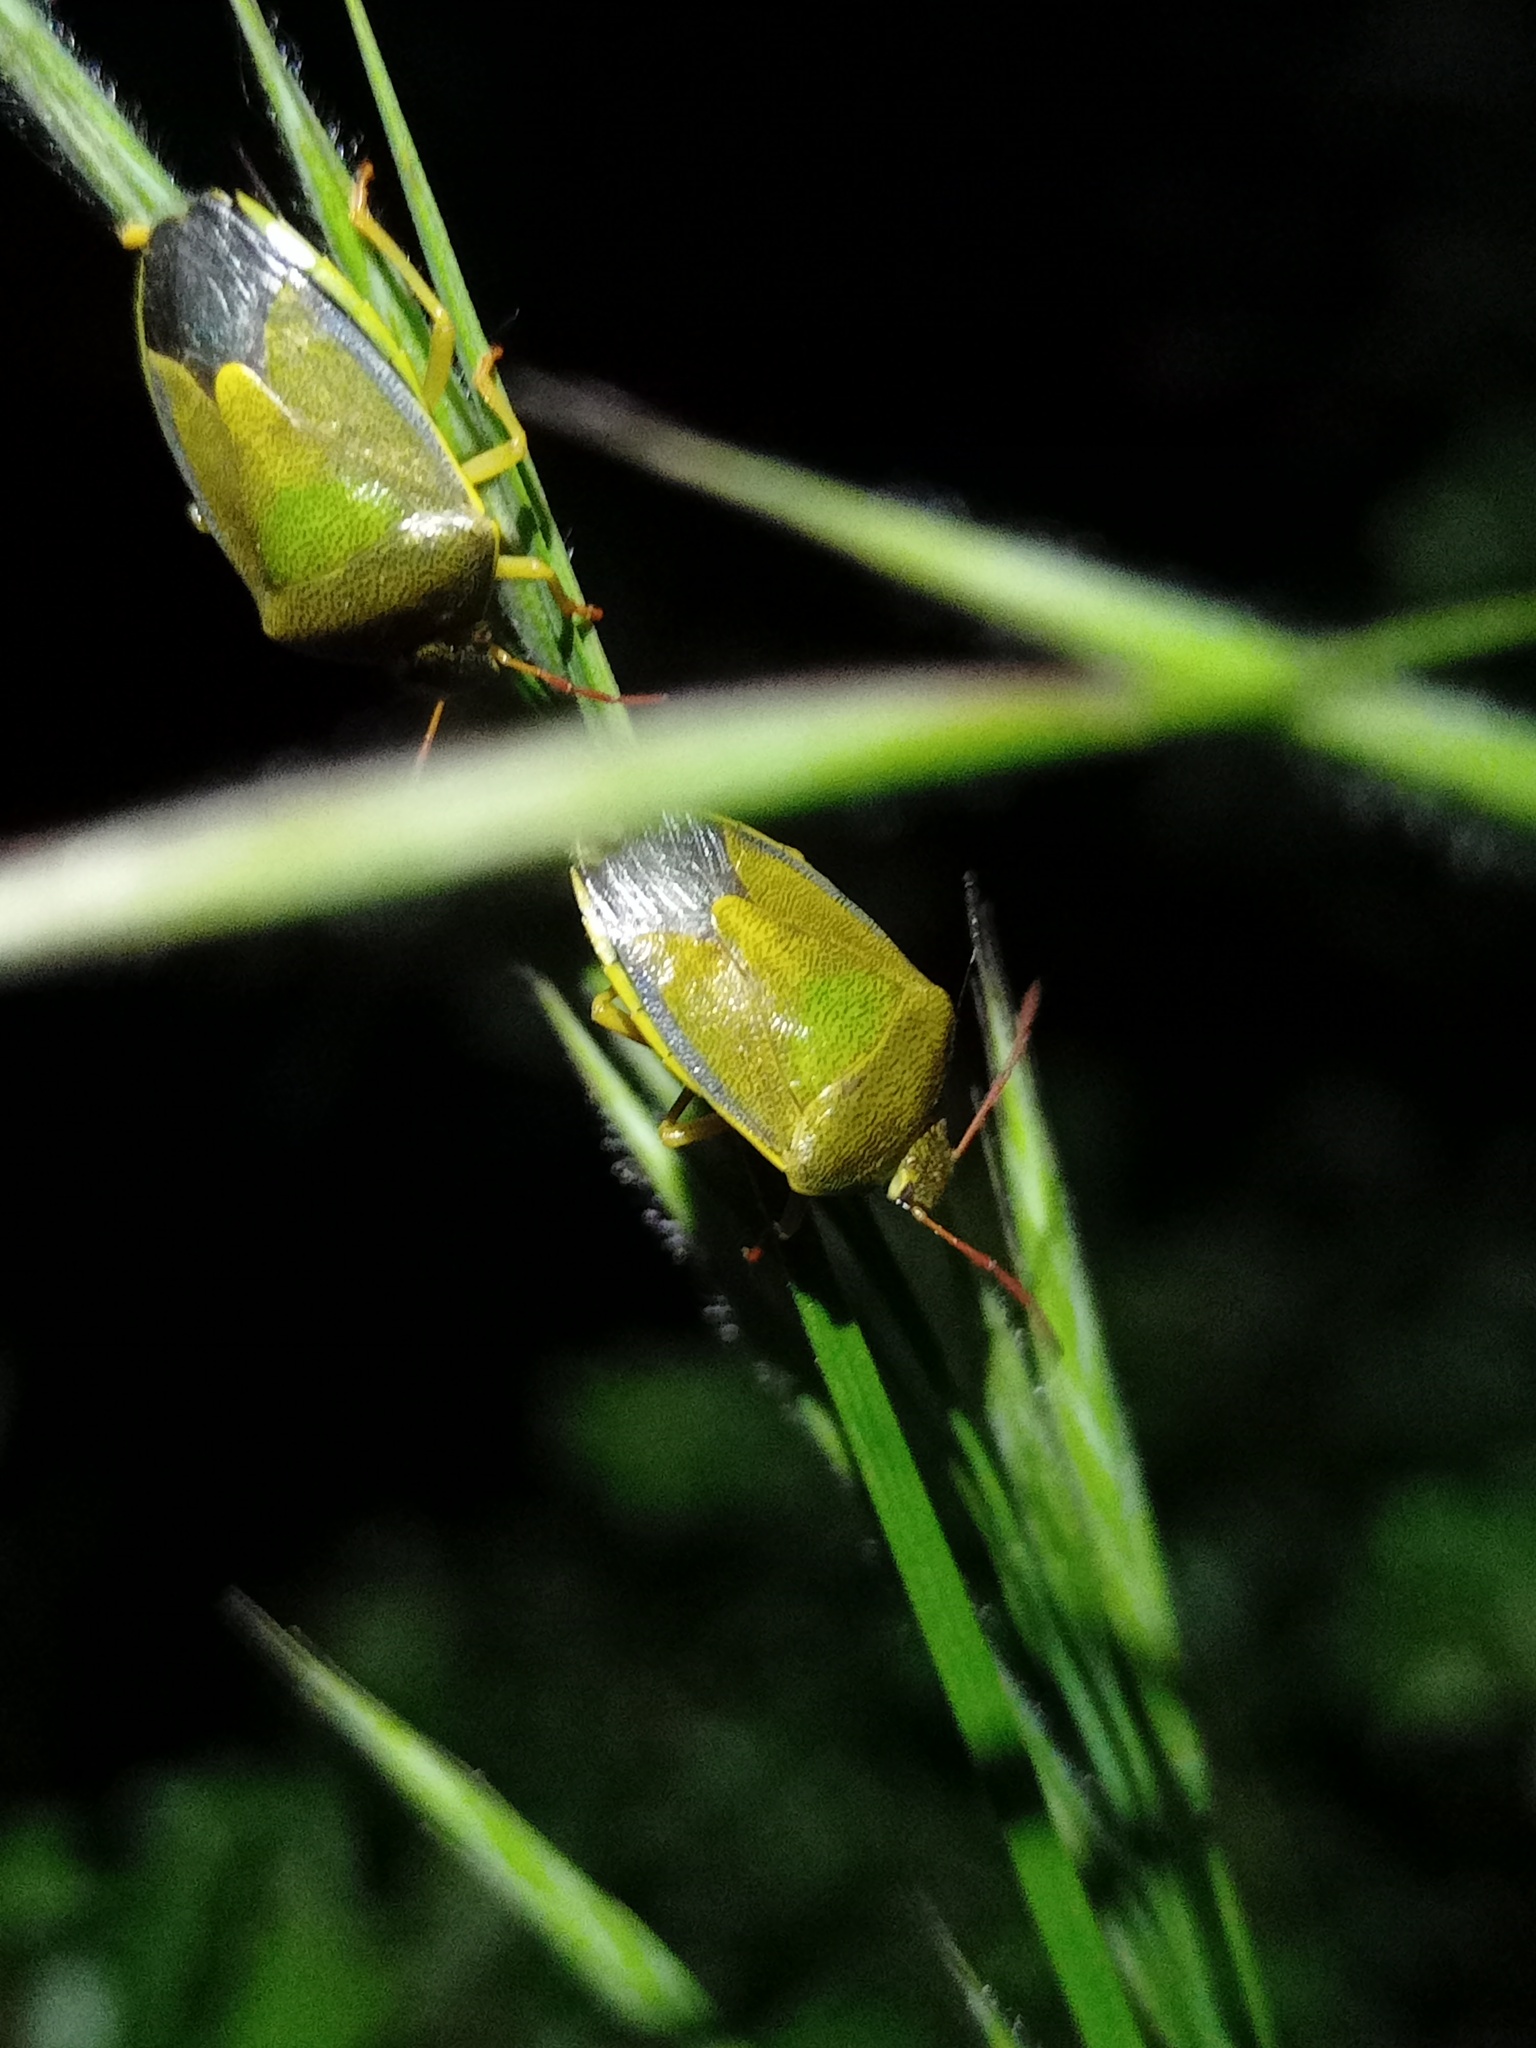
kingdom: Animalia
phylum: Arthropoda
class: Insecta
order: Hemiptera
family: Pentatomidae
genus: Piezodorus
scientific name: Piezodorus lituratus
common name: Stink bug
